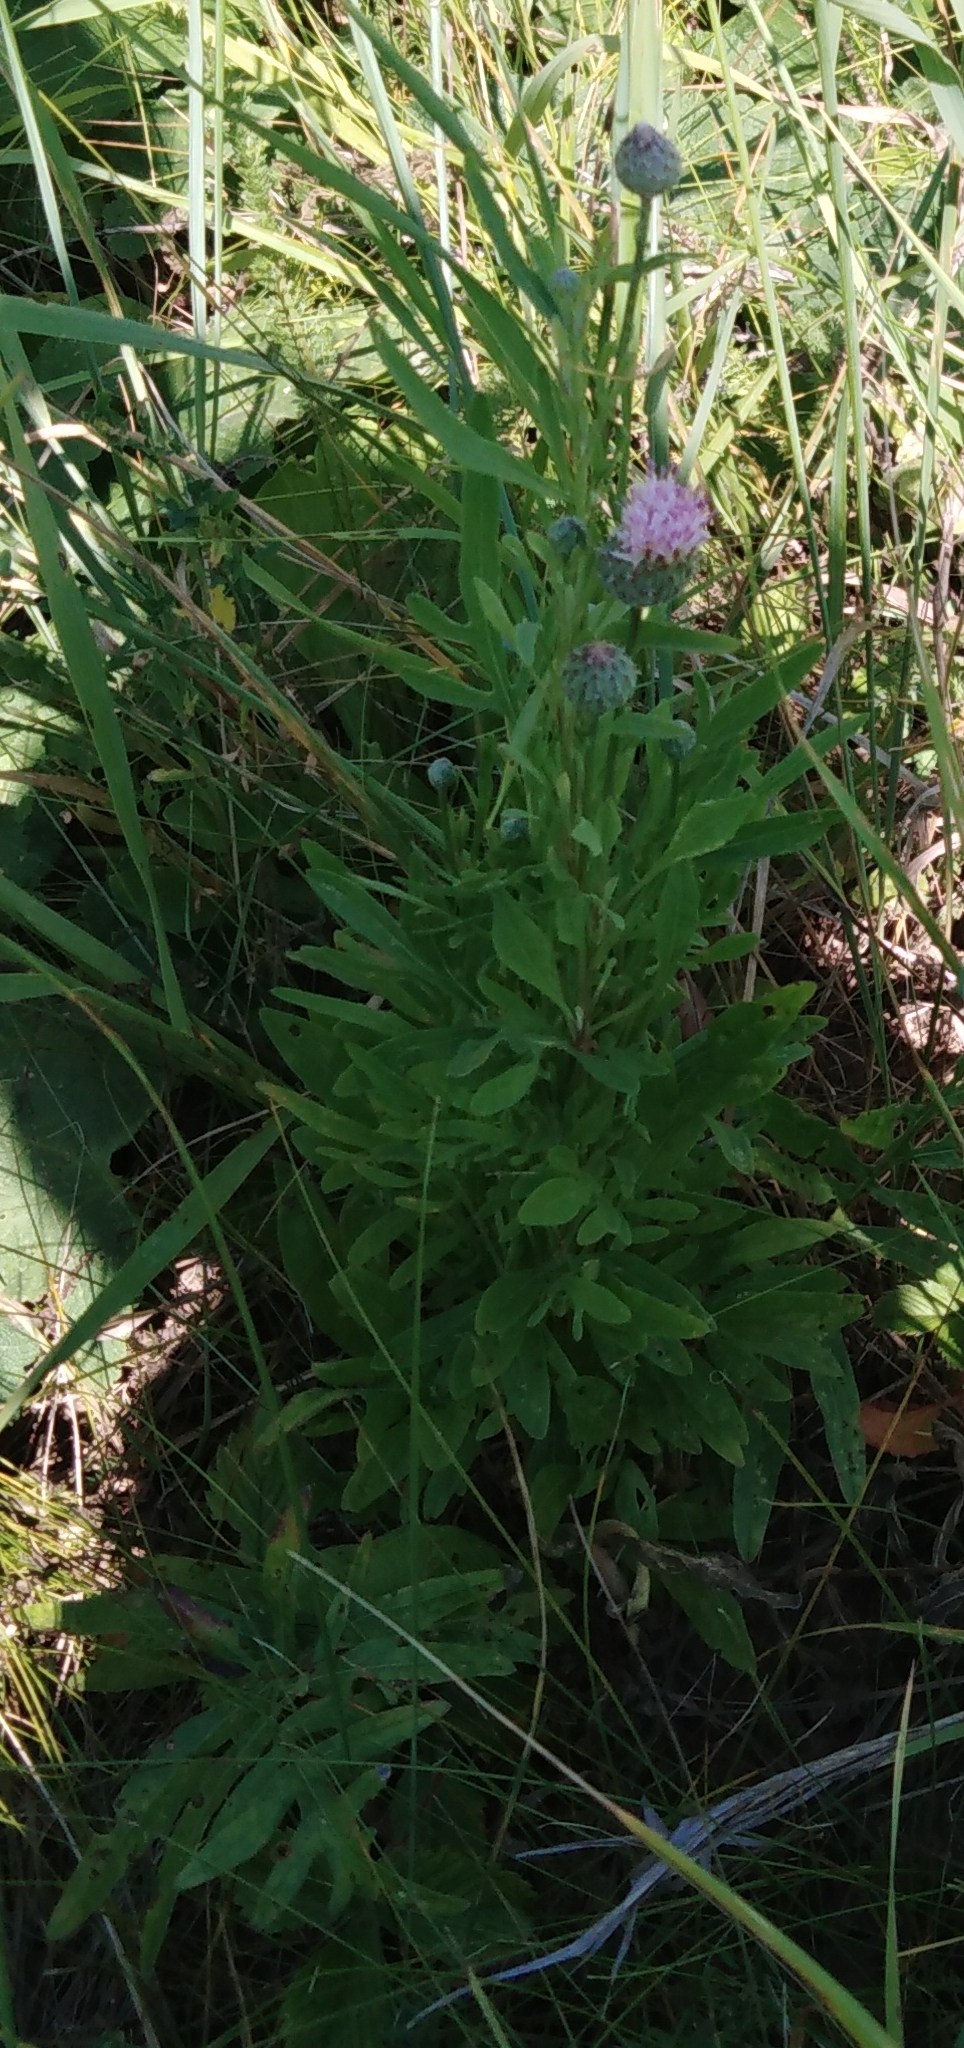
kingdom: Plantae
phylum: Tracheophyta
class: Magnoliopsida
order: Asterales
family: Asteraceae
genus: Cirsium
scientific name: Cirsium arvense
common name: Creeping thistle
